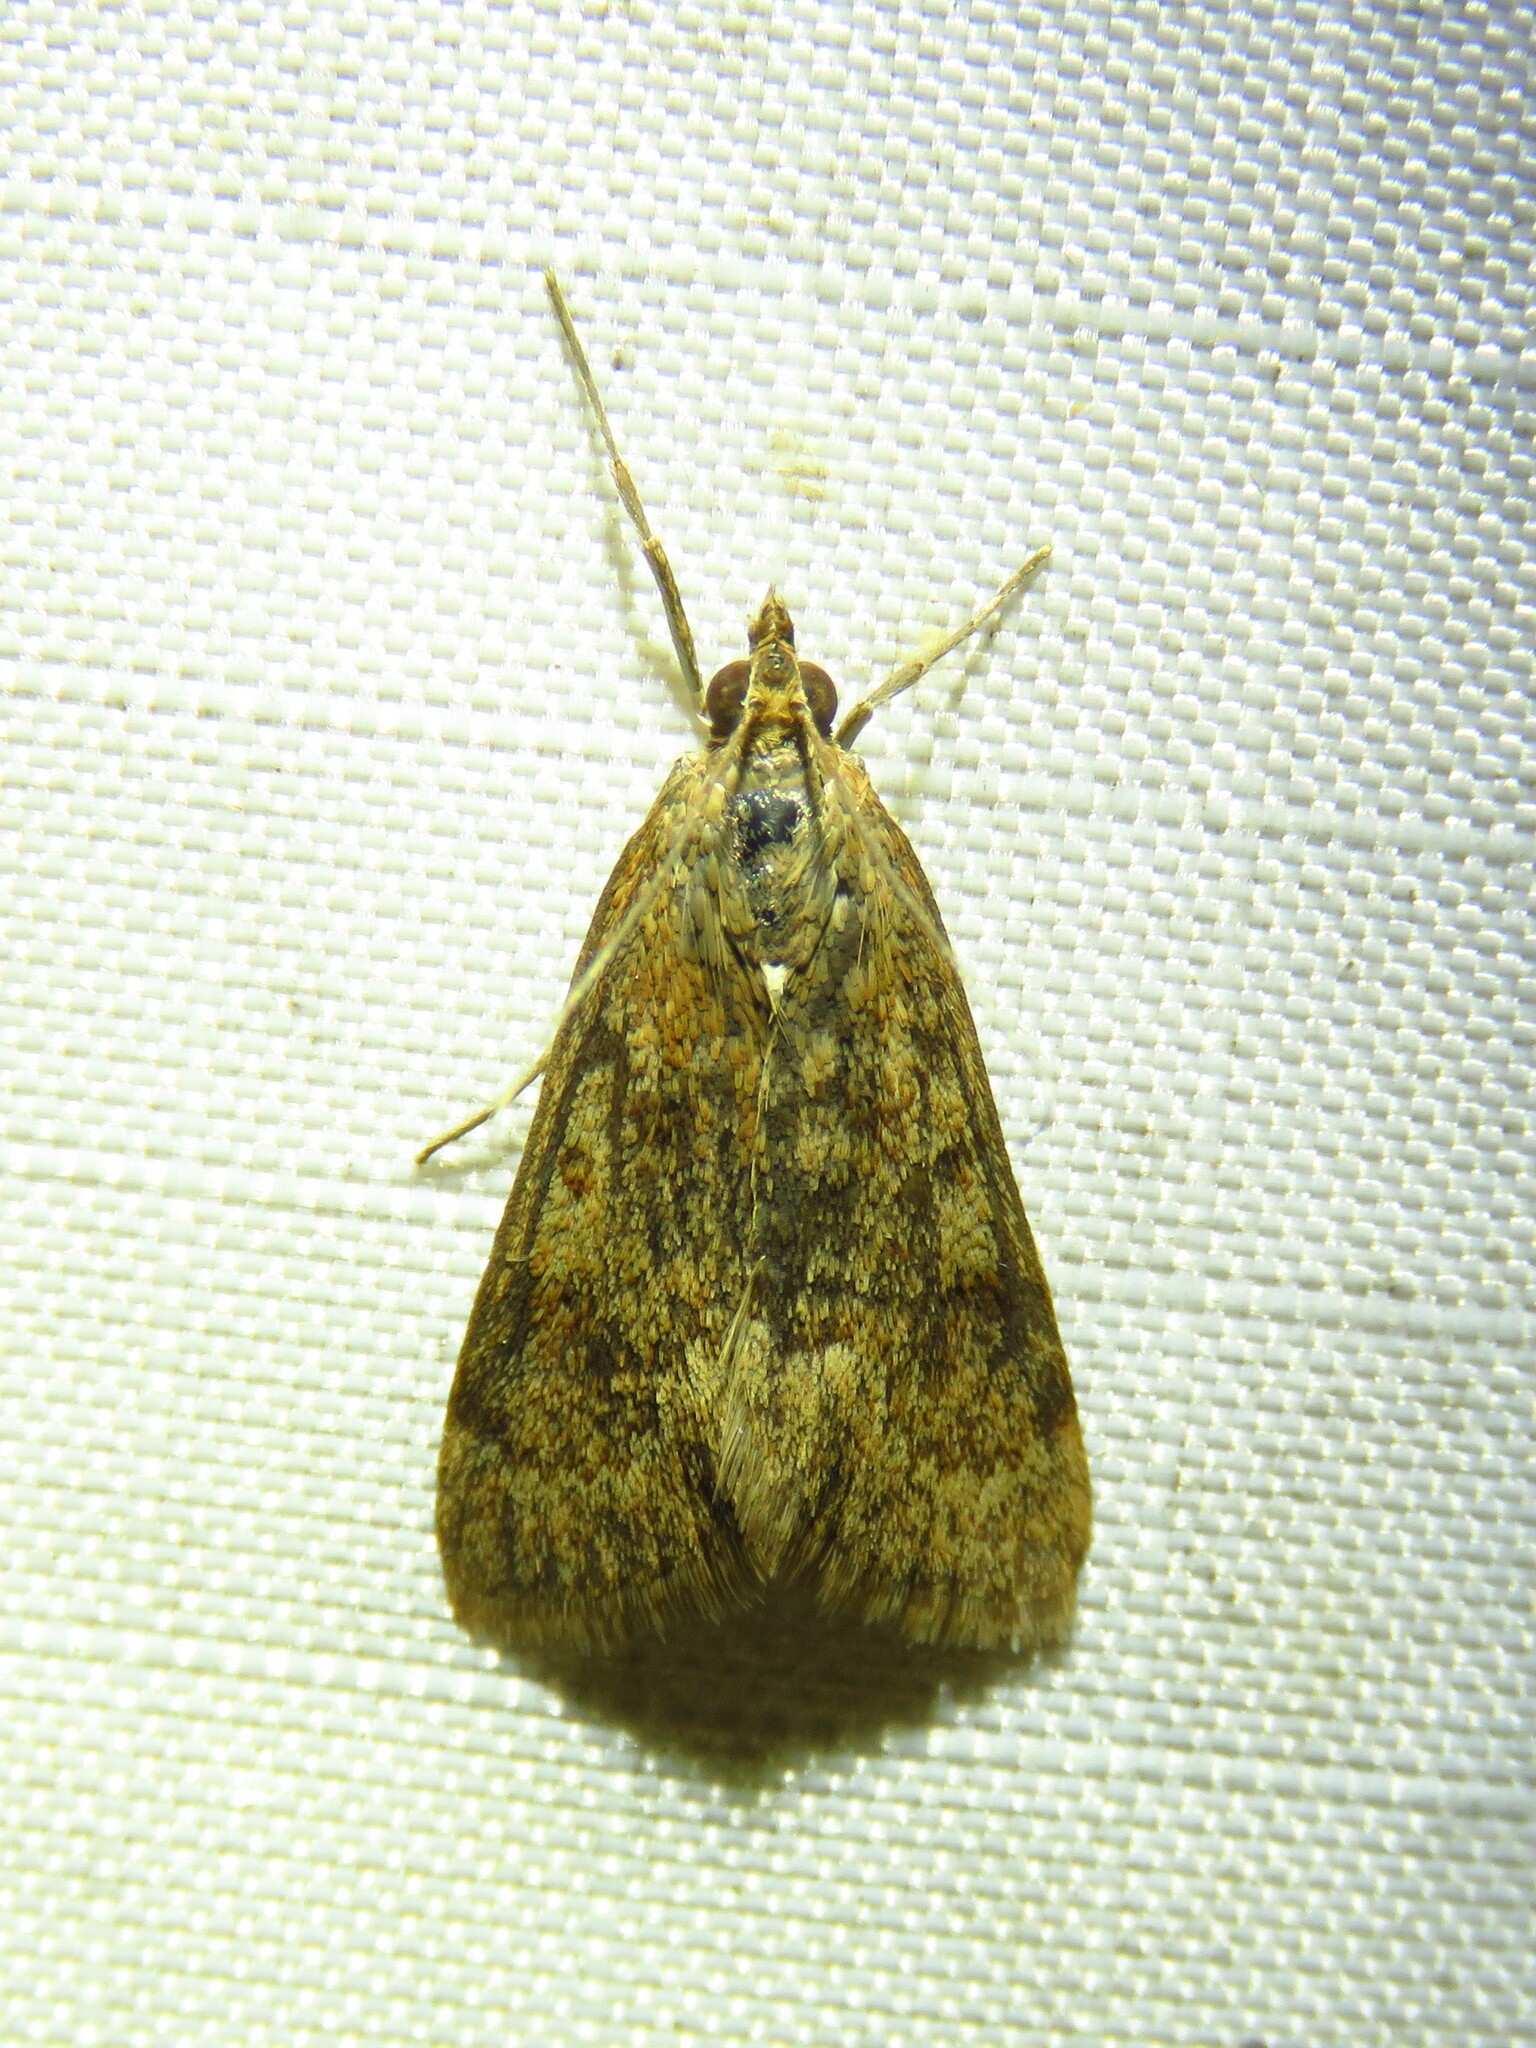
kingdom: Animalia
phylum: Arthropoda
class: Insecta
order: Lepidoptera
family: Crambidae
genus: Achyra
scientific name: Achyra rantalis
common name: Garden webworm
